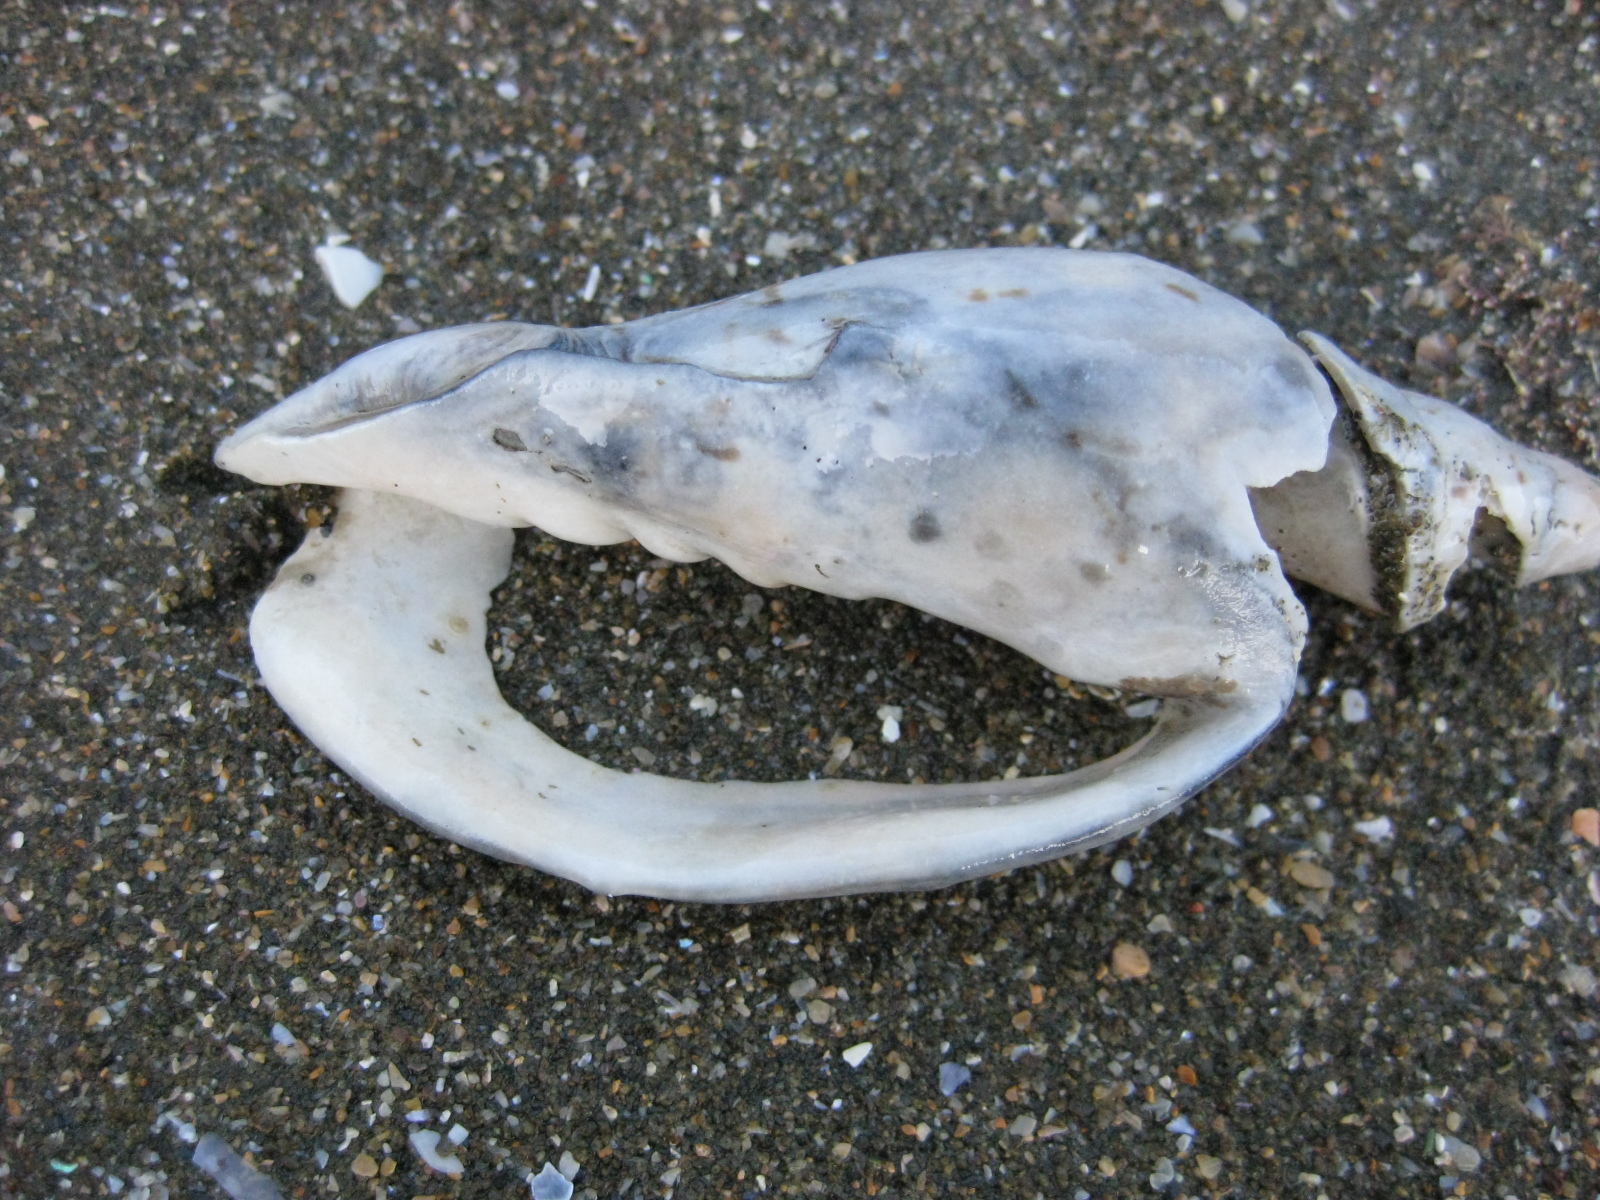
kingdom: Animalia
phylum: Mollusca
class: Gastropoda
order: Neogastropoda
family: Volutidae
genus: Alcithoe
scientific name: Alcithoe arabica
